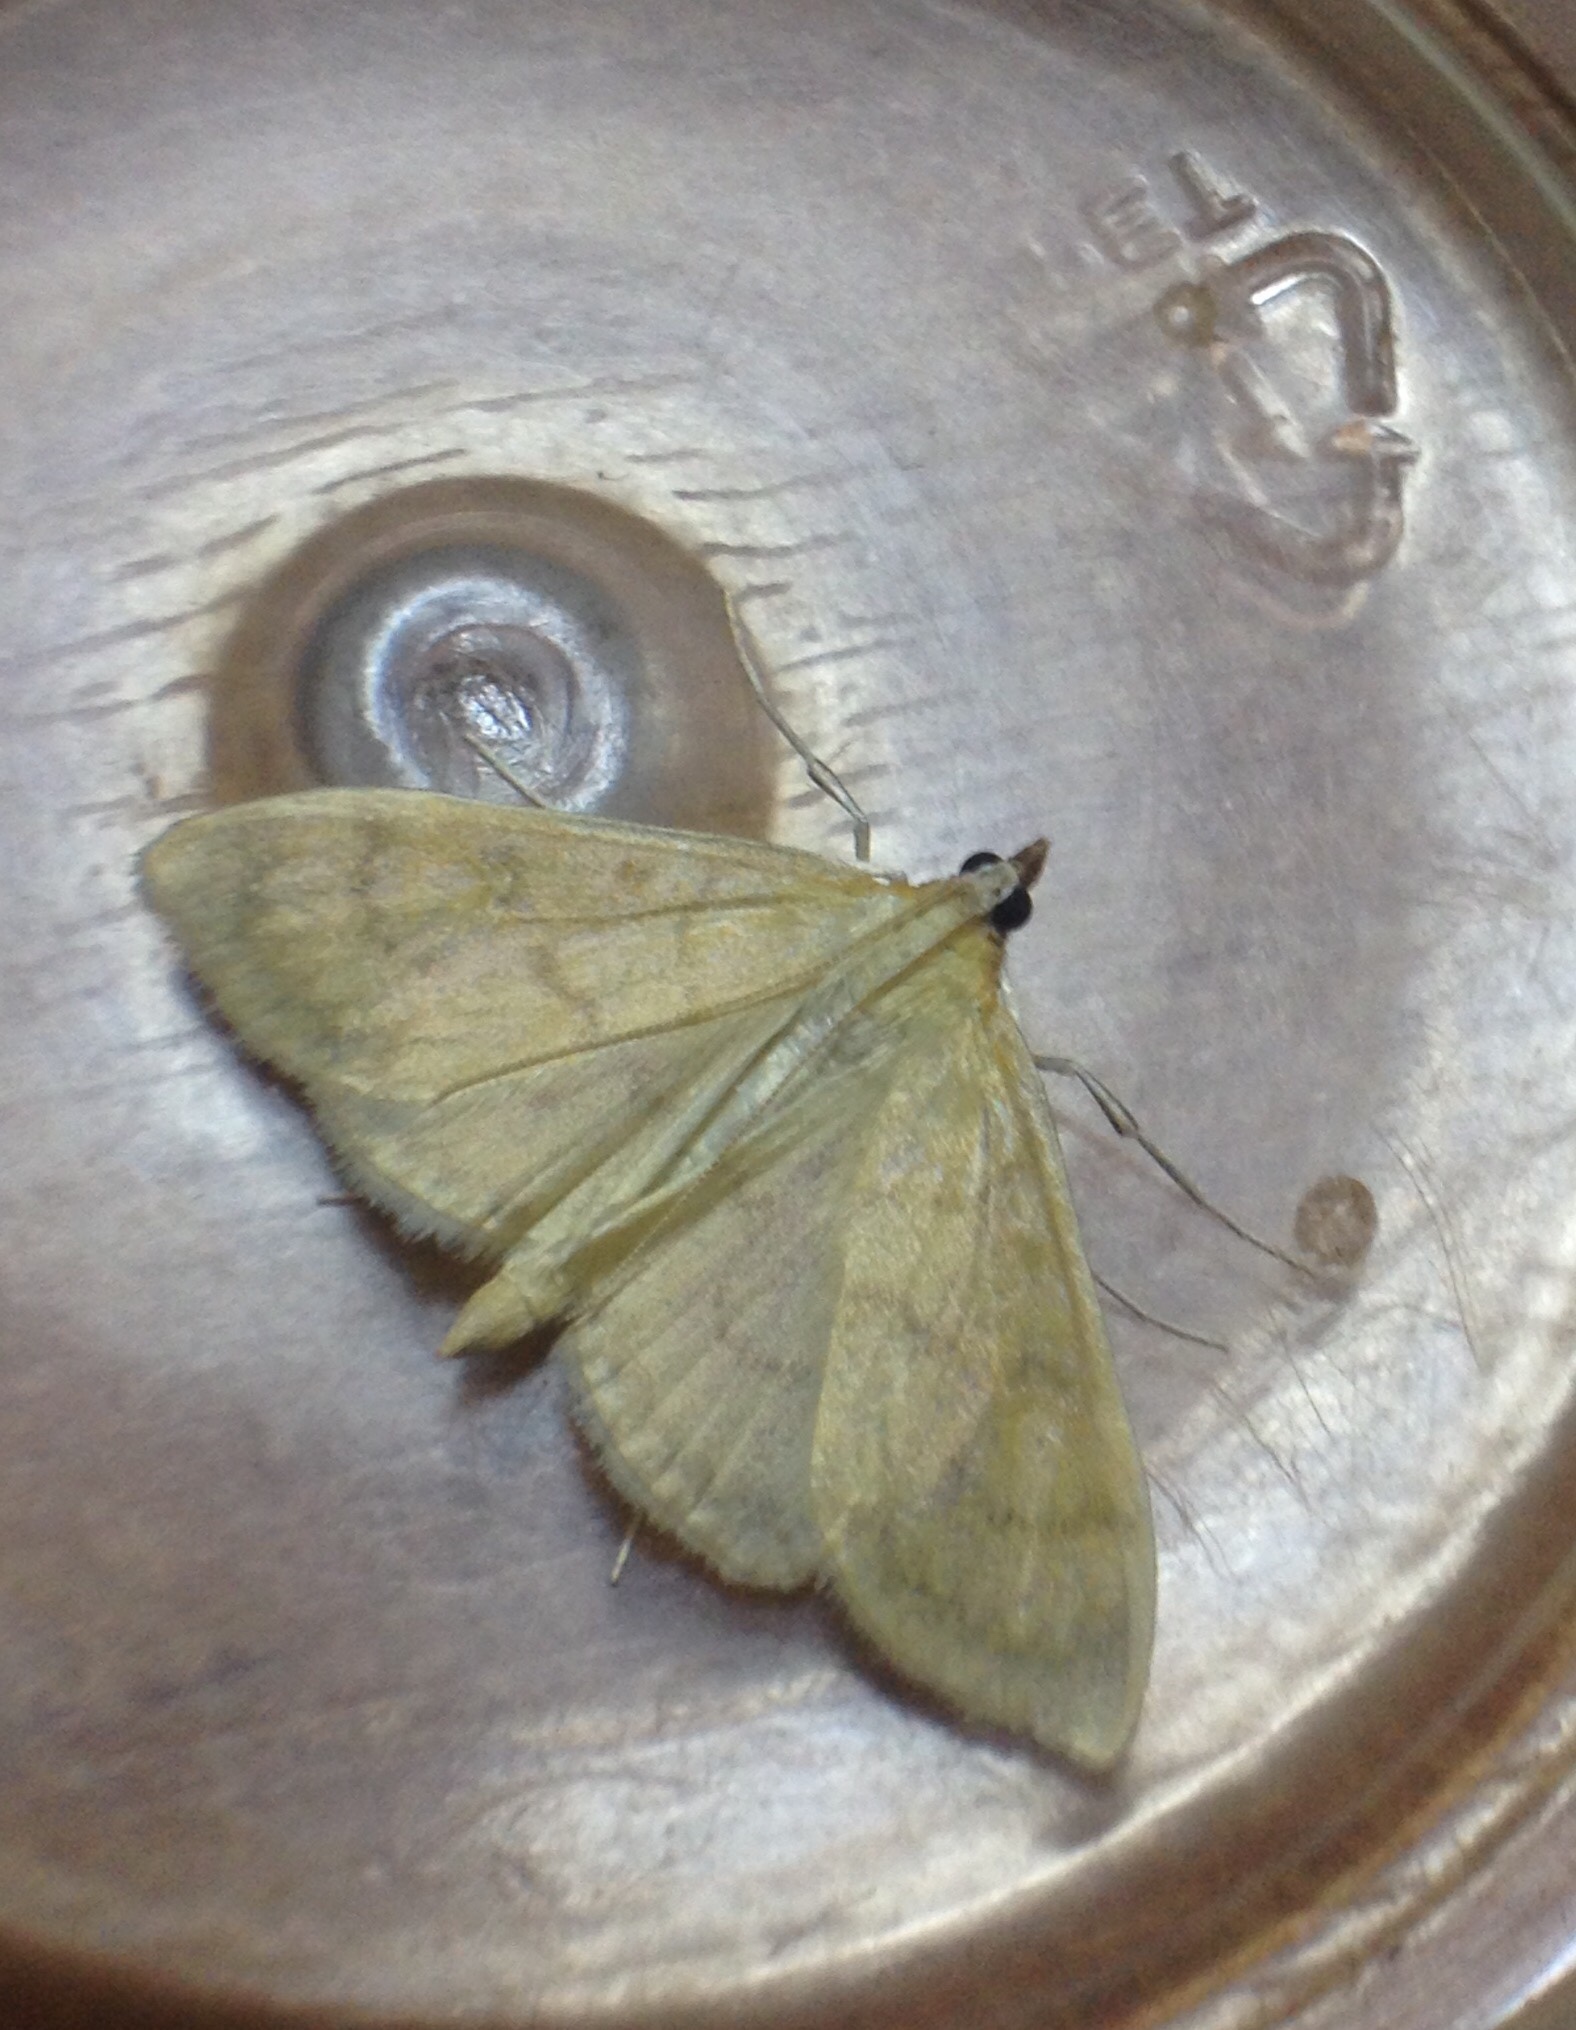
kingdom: Animalia
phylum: Arthropoda
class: Insecta
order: Lepidoptera
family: Crambidae
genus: Paratalanta
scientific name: Paratalanta hyalinalis
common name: Translucent pearl
